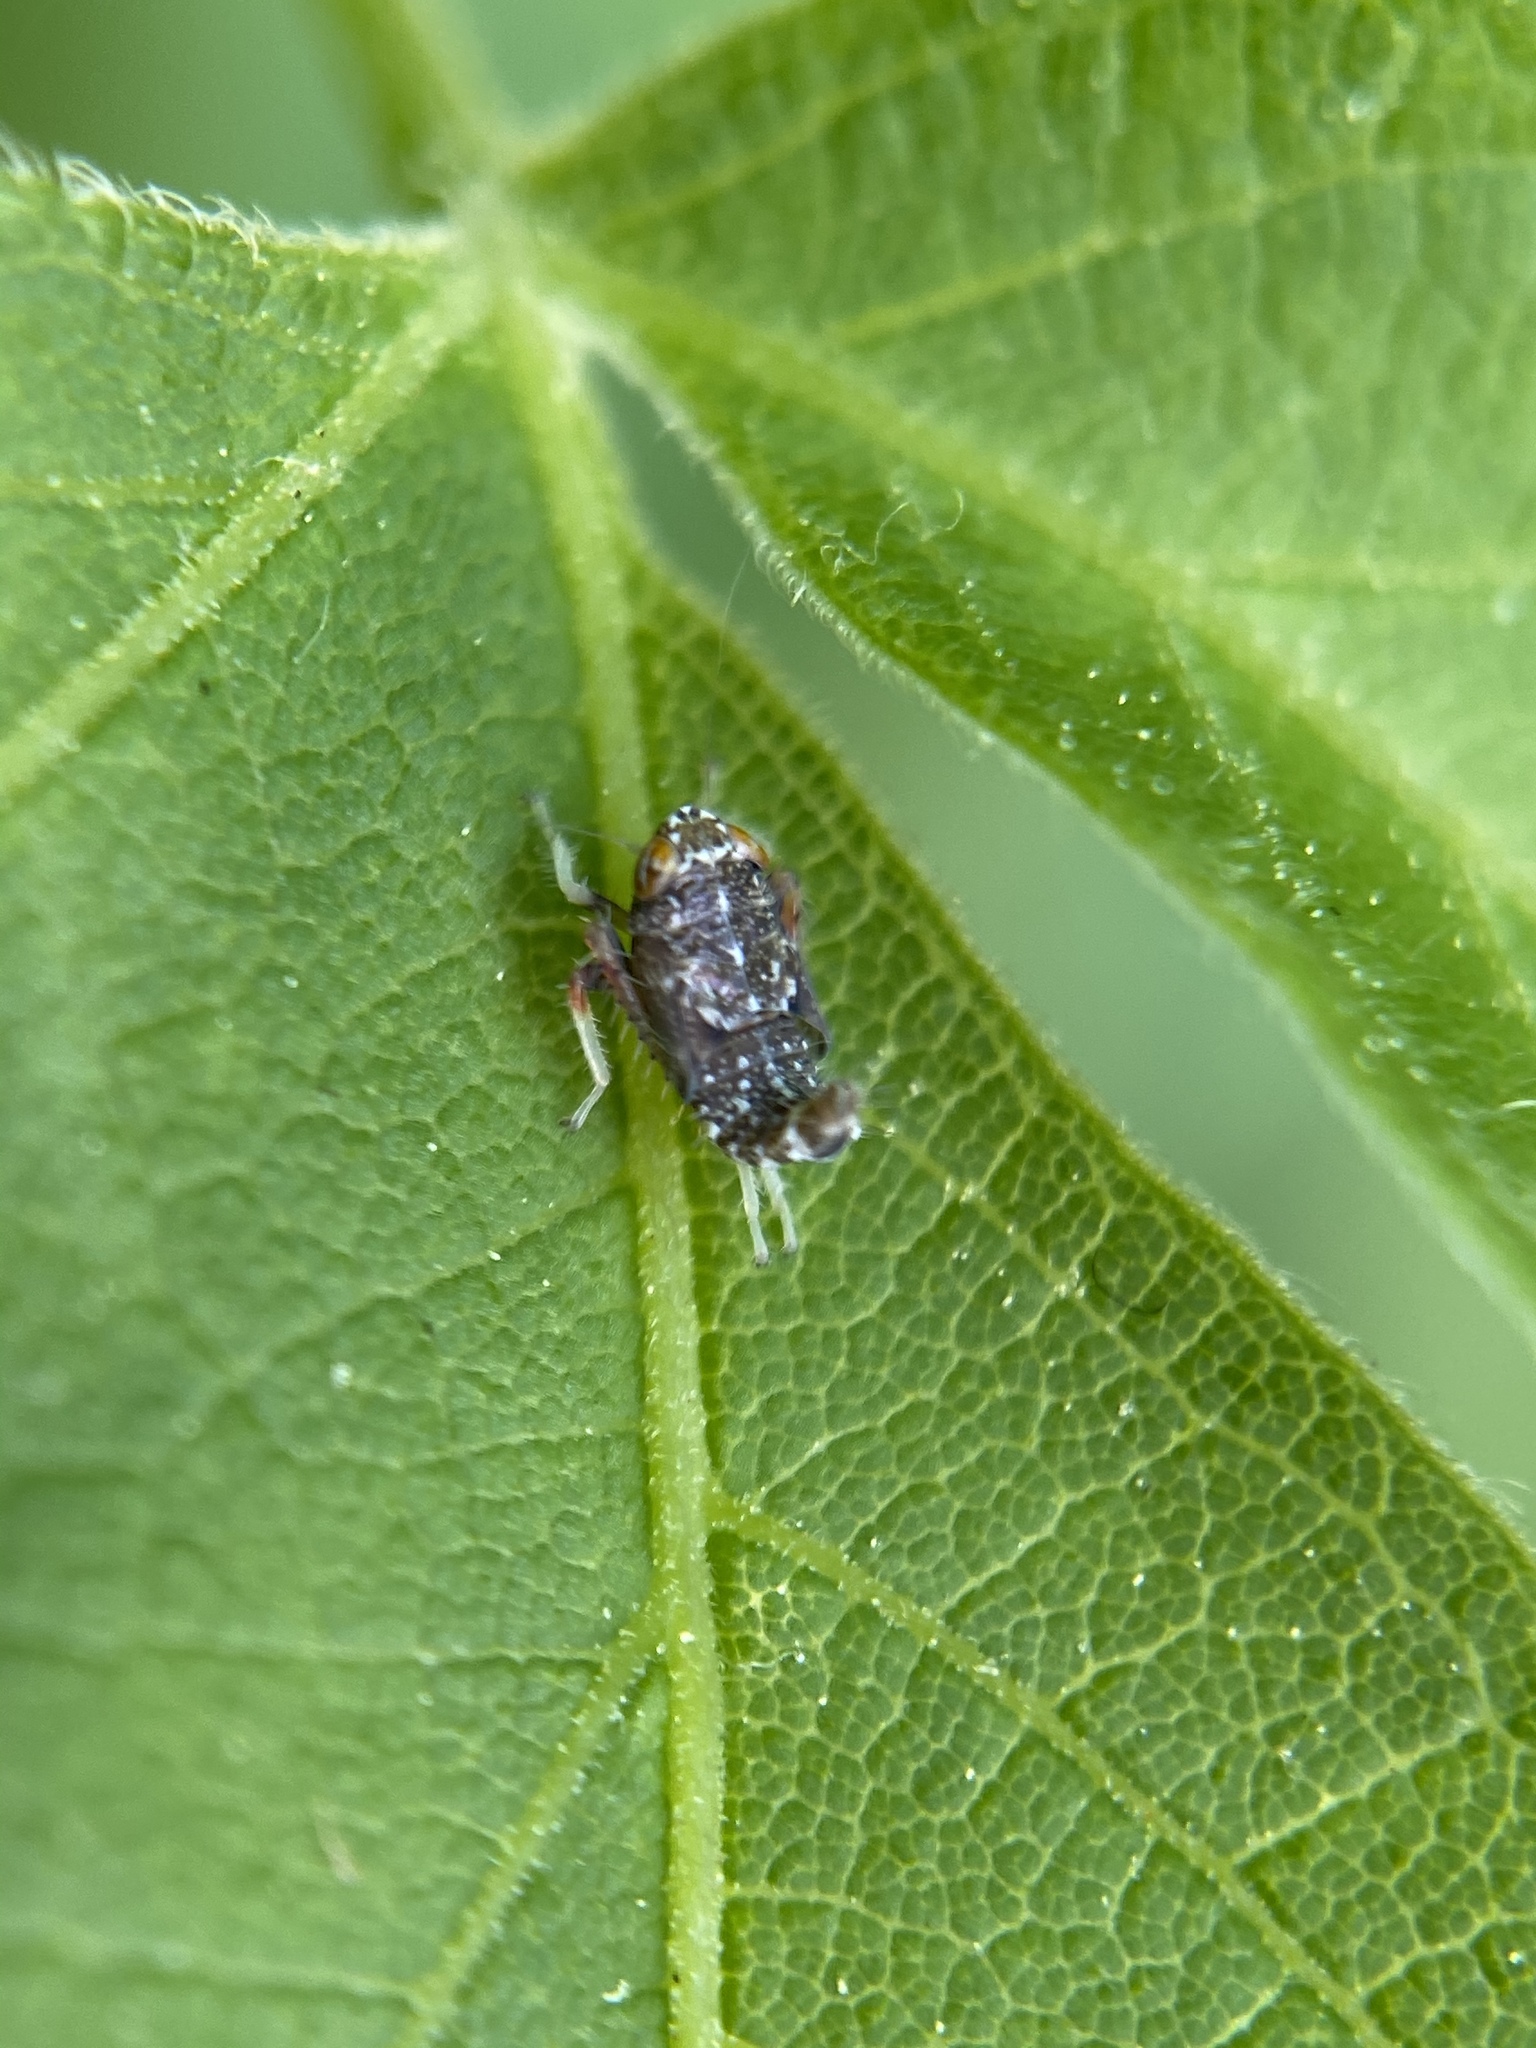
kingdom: Animalia
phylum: Arthropoda
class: Insecta
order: Hemiptera
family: Cicadellidae
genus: Orientus
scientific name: Orientus ishidae
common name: Japanese leafhopper
